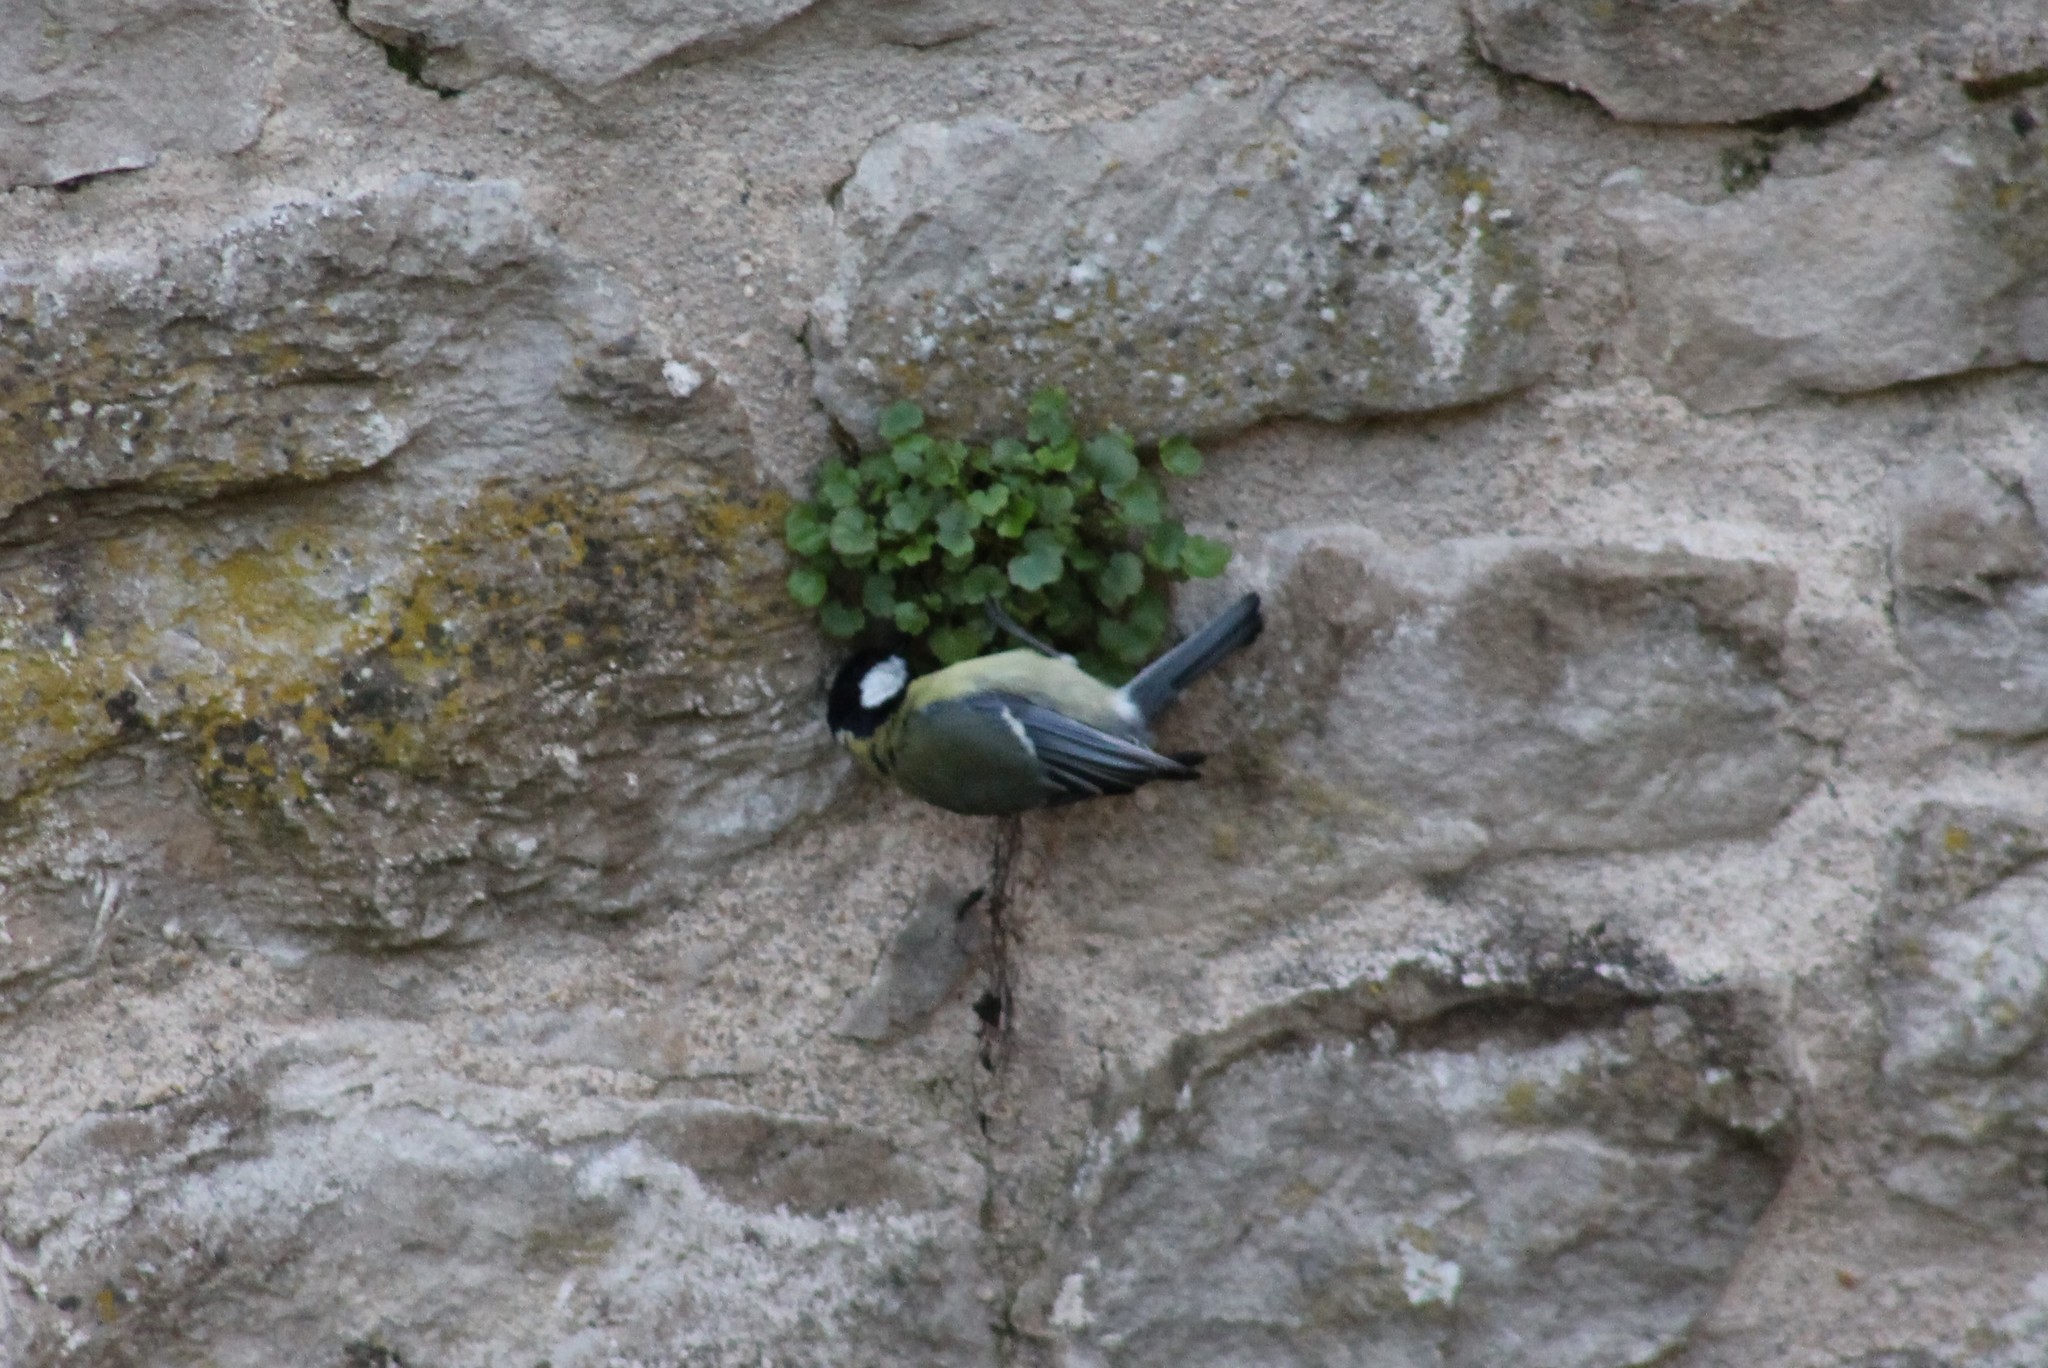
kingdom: Animalia
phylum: Chordata
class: Aves
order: Passeriformes
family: Paridae
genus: Parus
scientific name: Parus major
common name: Great tit
